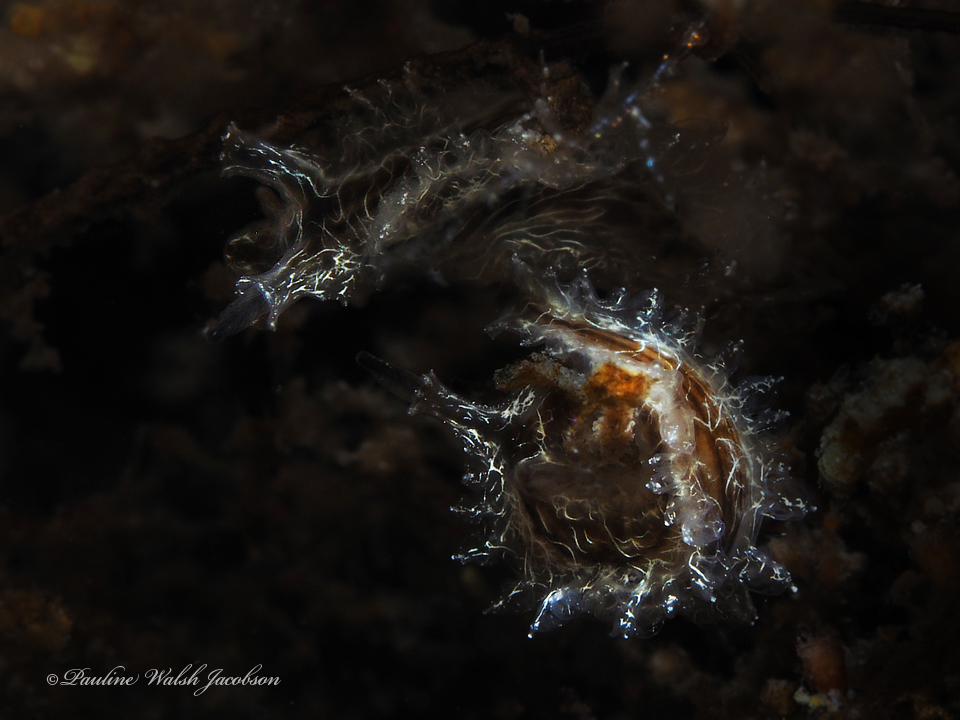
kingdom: Animalia
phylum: Mollusca
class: Gastropoda
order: Nudibranchia
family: Lomanotidae
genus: Lomanotus
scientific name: Lomanotus vermiformis
